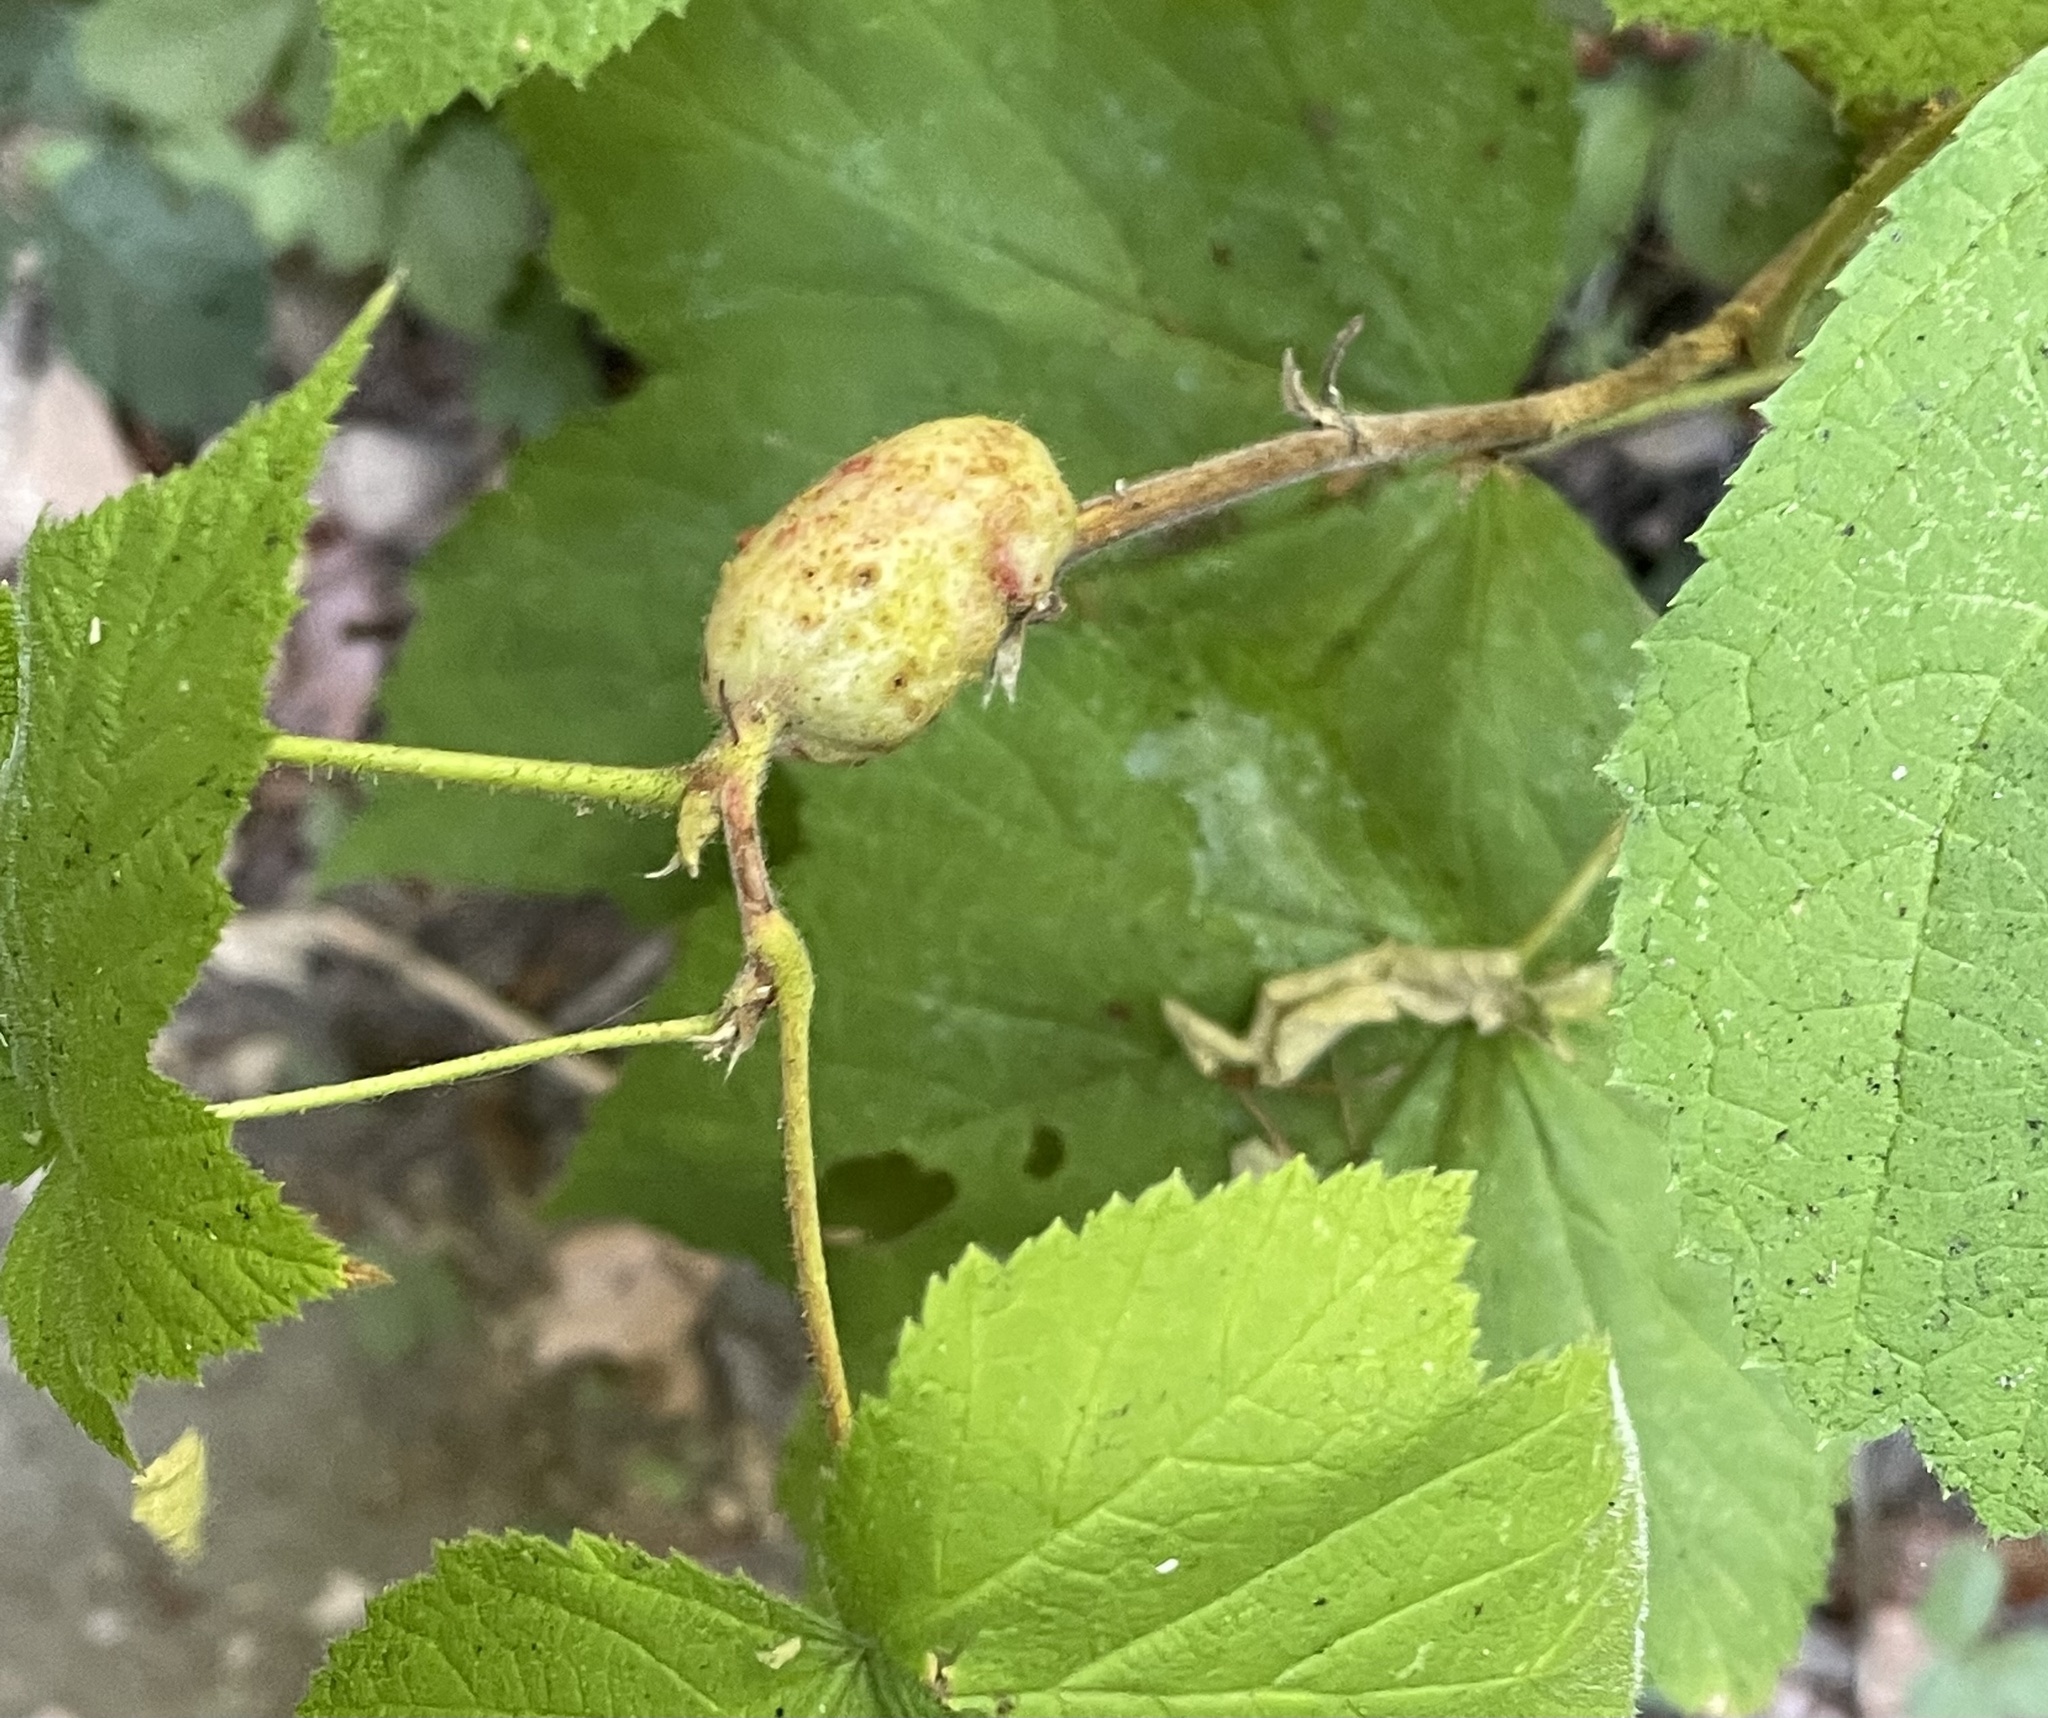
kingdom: Animalia
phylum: Arthropoda
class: Insecta
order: Hymenoptera
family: Cynipidae
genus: Diastrophus
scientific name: Diastrophus
